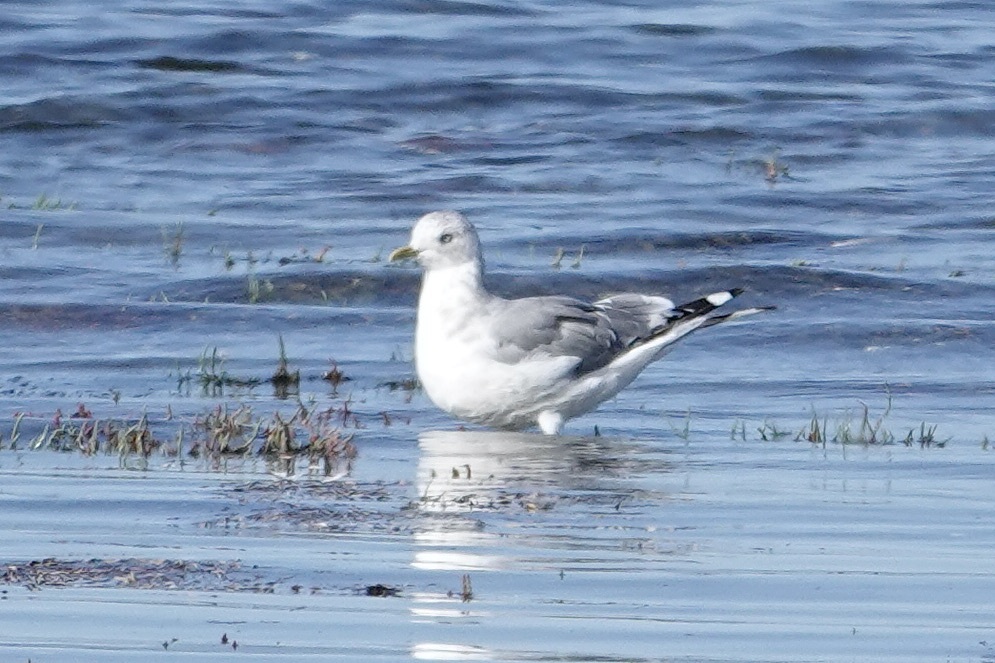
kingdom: Animalia
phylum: Chordata
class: Aves
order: Charadriiformes
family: Laridae
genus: Larus
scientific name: Larus brachyrhynchus
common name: Short-billed gull
